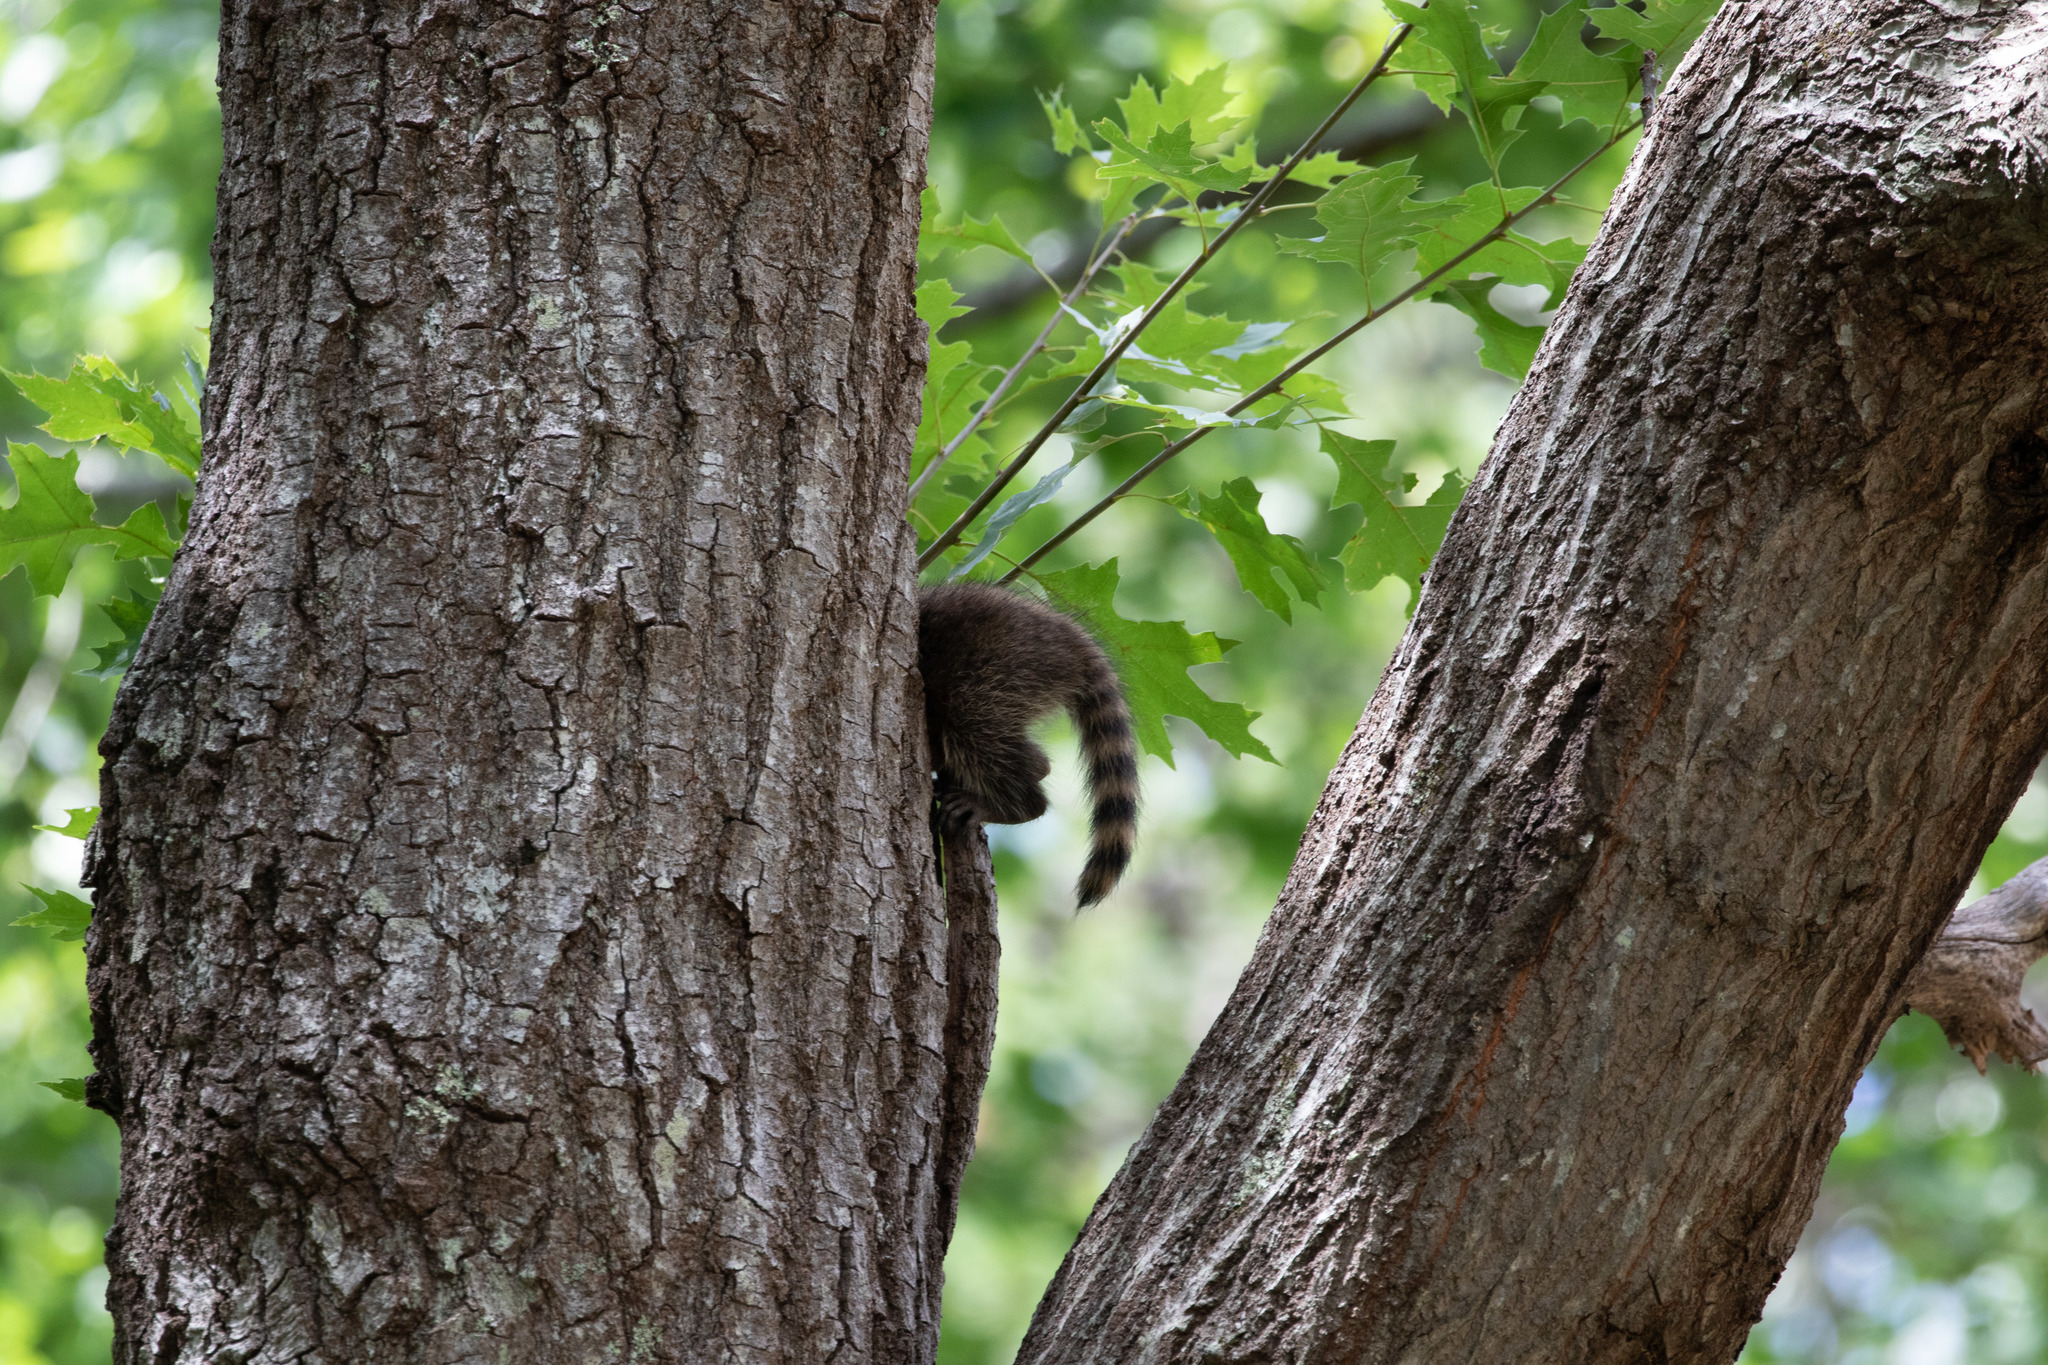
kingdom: Animalia
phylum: Chordata
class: Mammalia
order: Carnivora
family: Procyonidae
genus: Procyon
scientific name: Procyon lotor
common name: Raccoon
